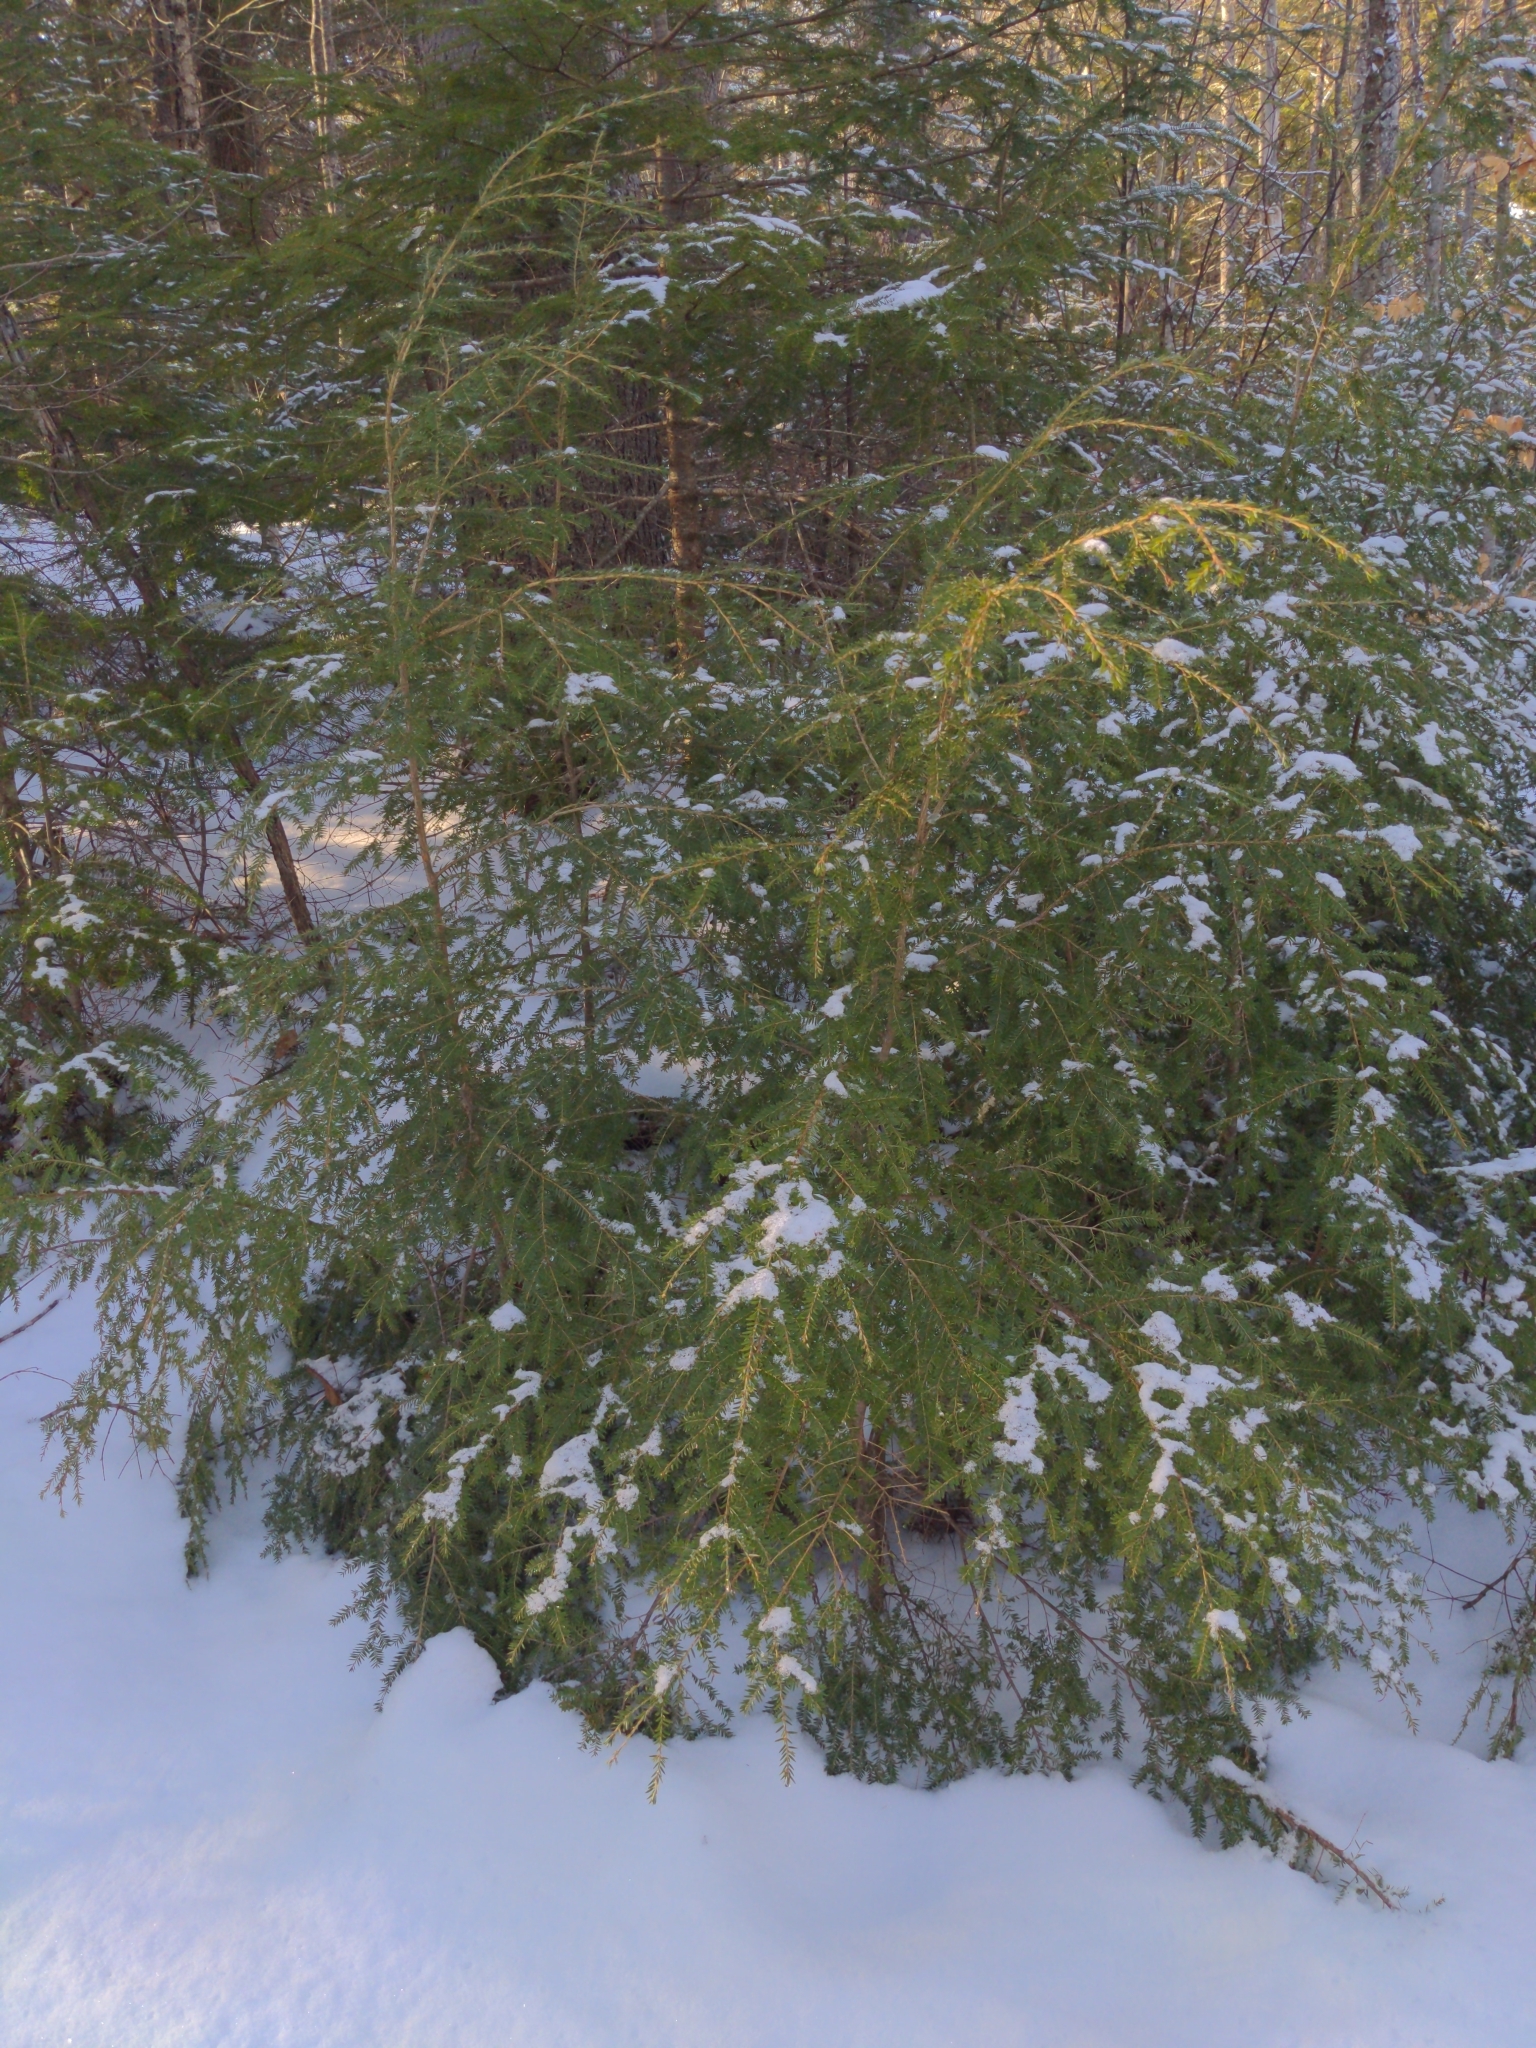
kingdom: Plantae
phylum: Tracheophyta
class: Pinopsida
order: Pinales
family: Pinaceae
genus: Tsuga
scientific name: Tsuga canadensis
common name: Eastern hemlock
